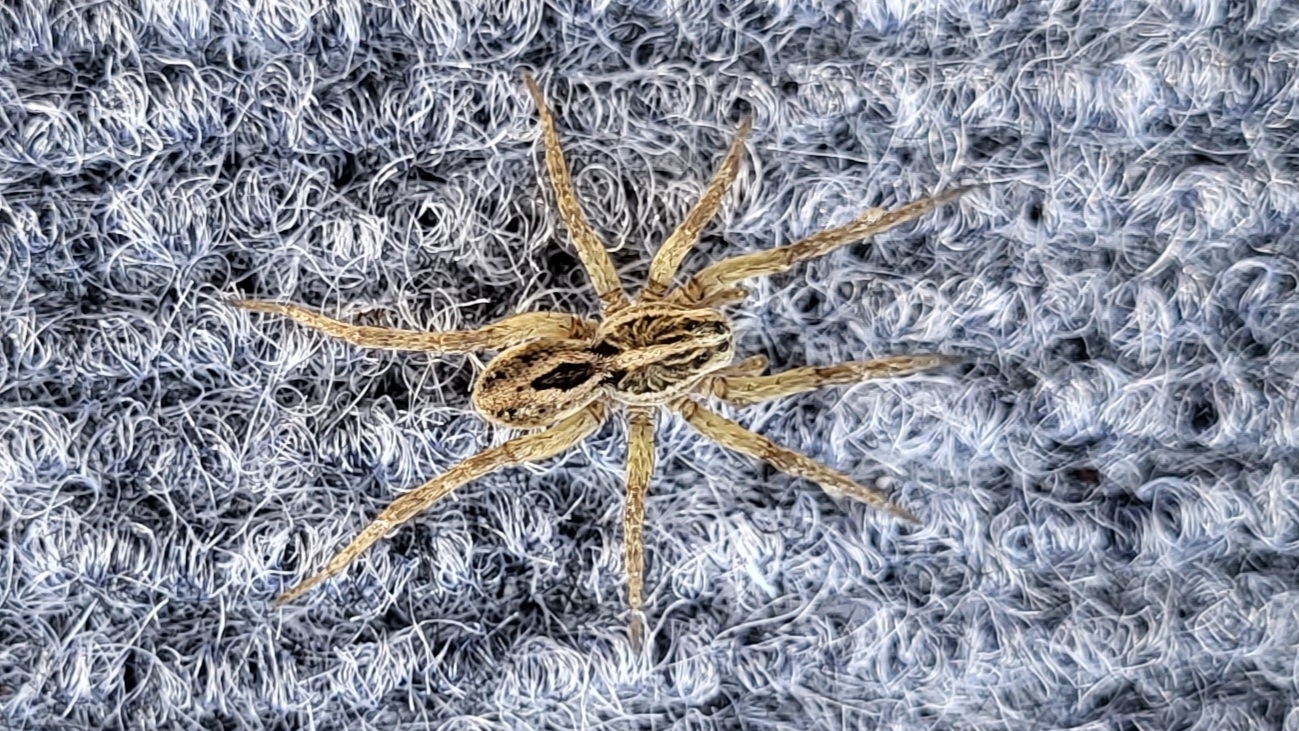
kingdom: Animalia
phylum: Arthropoda
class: Arachnida
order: Araneae
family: Lycosidae
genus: Tigrosa
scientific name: Tigrosa annexa
